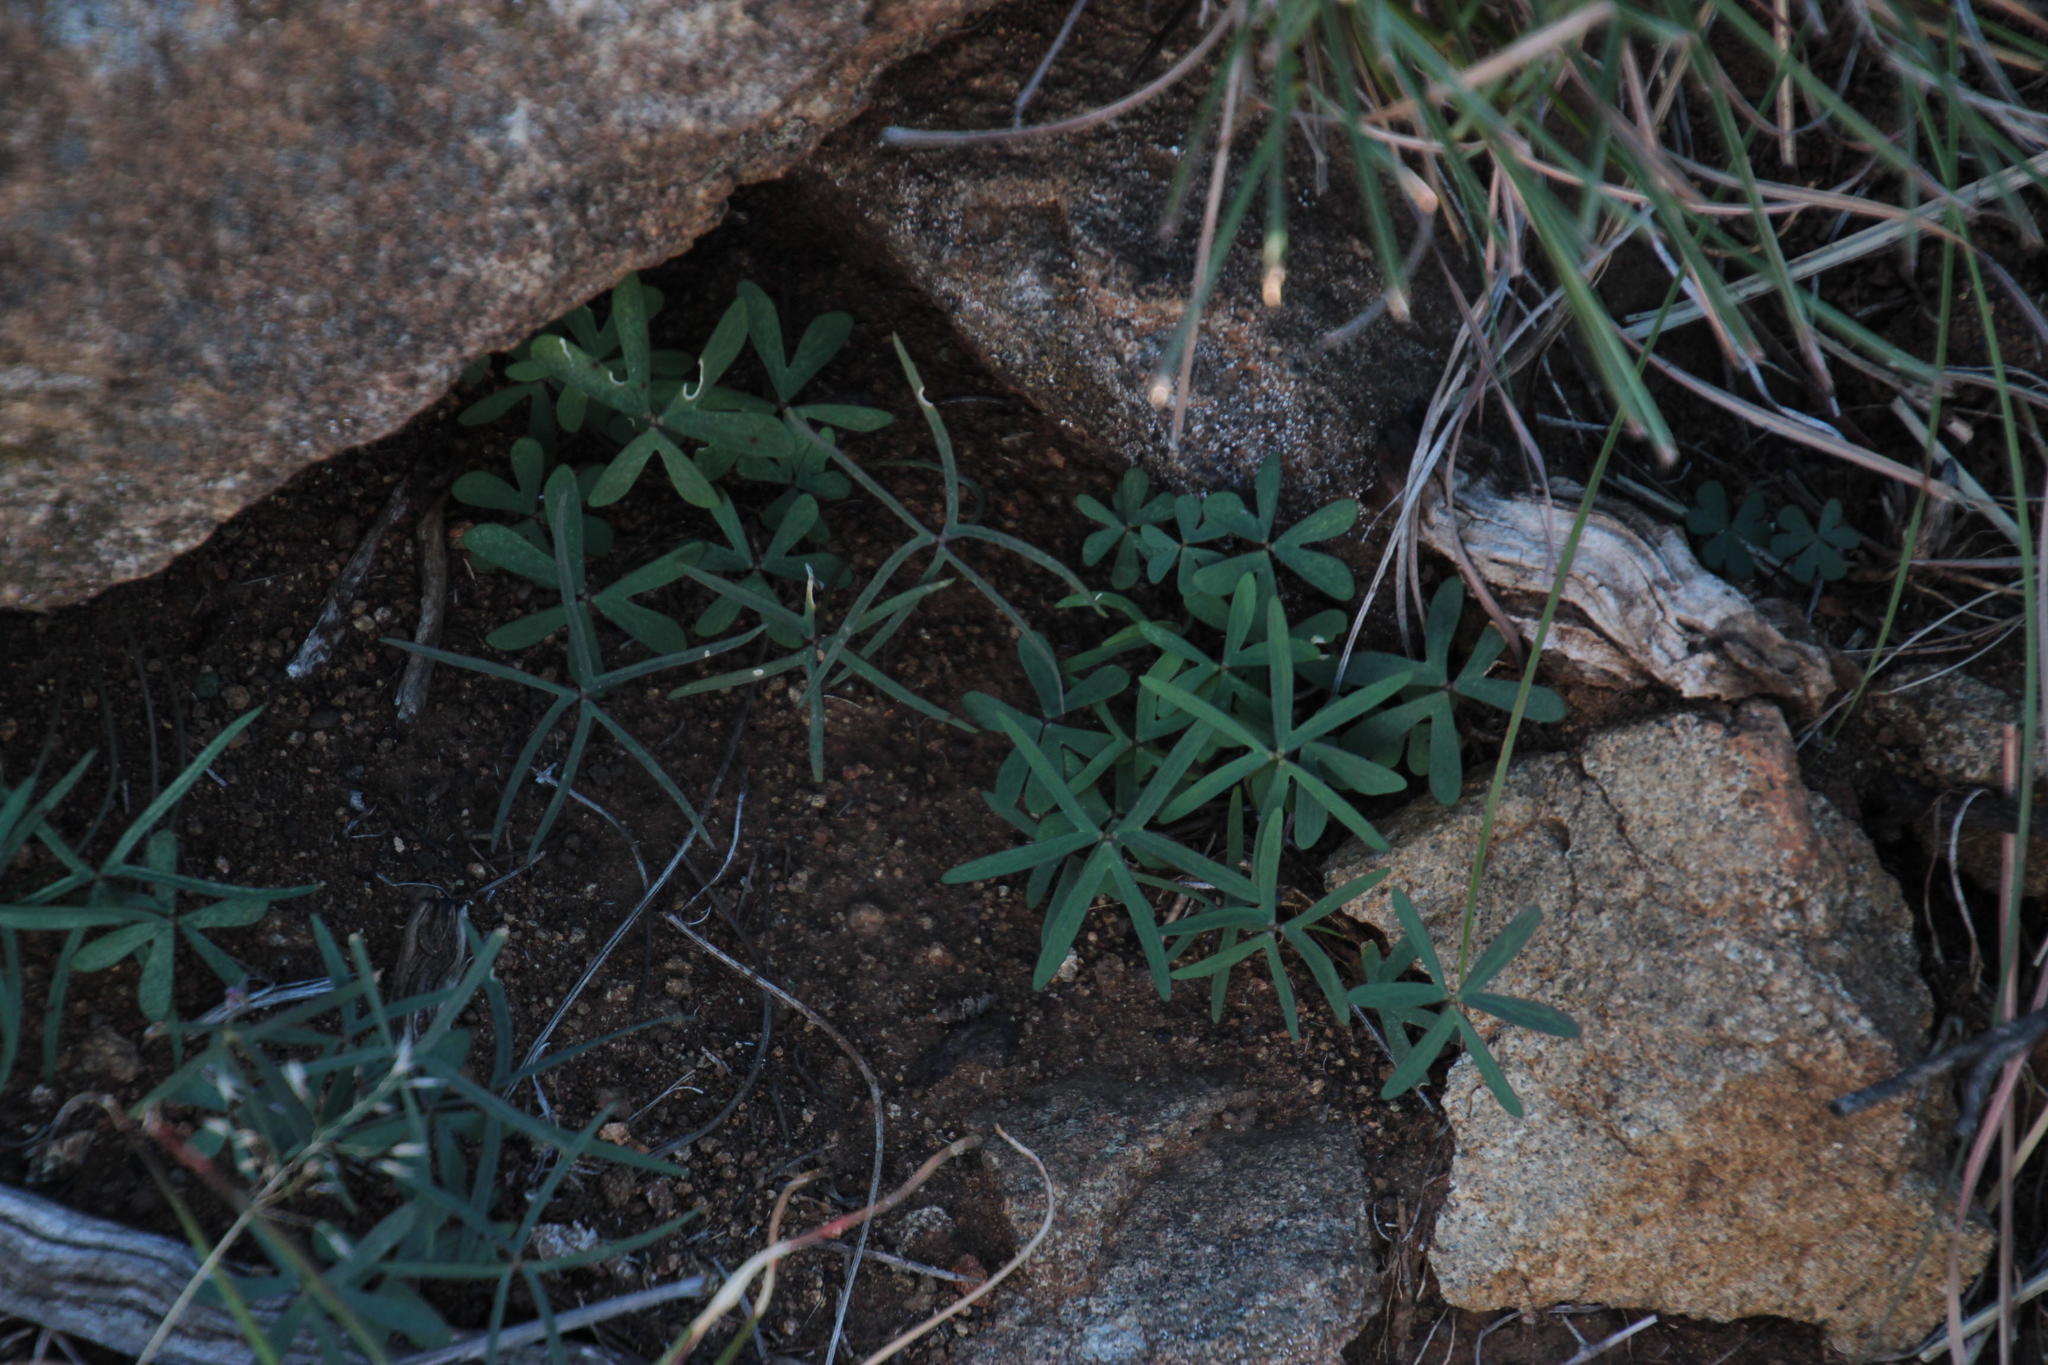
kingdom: Plantae
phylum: Tracheophyta
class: Magnoliopsida
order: Oxalidales
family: Oxalidaceae
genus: Oxalis
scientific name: Oxalis smithiana
